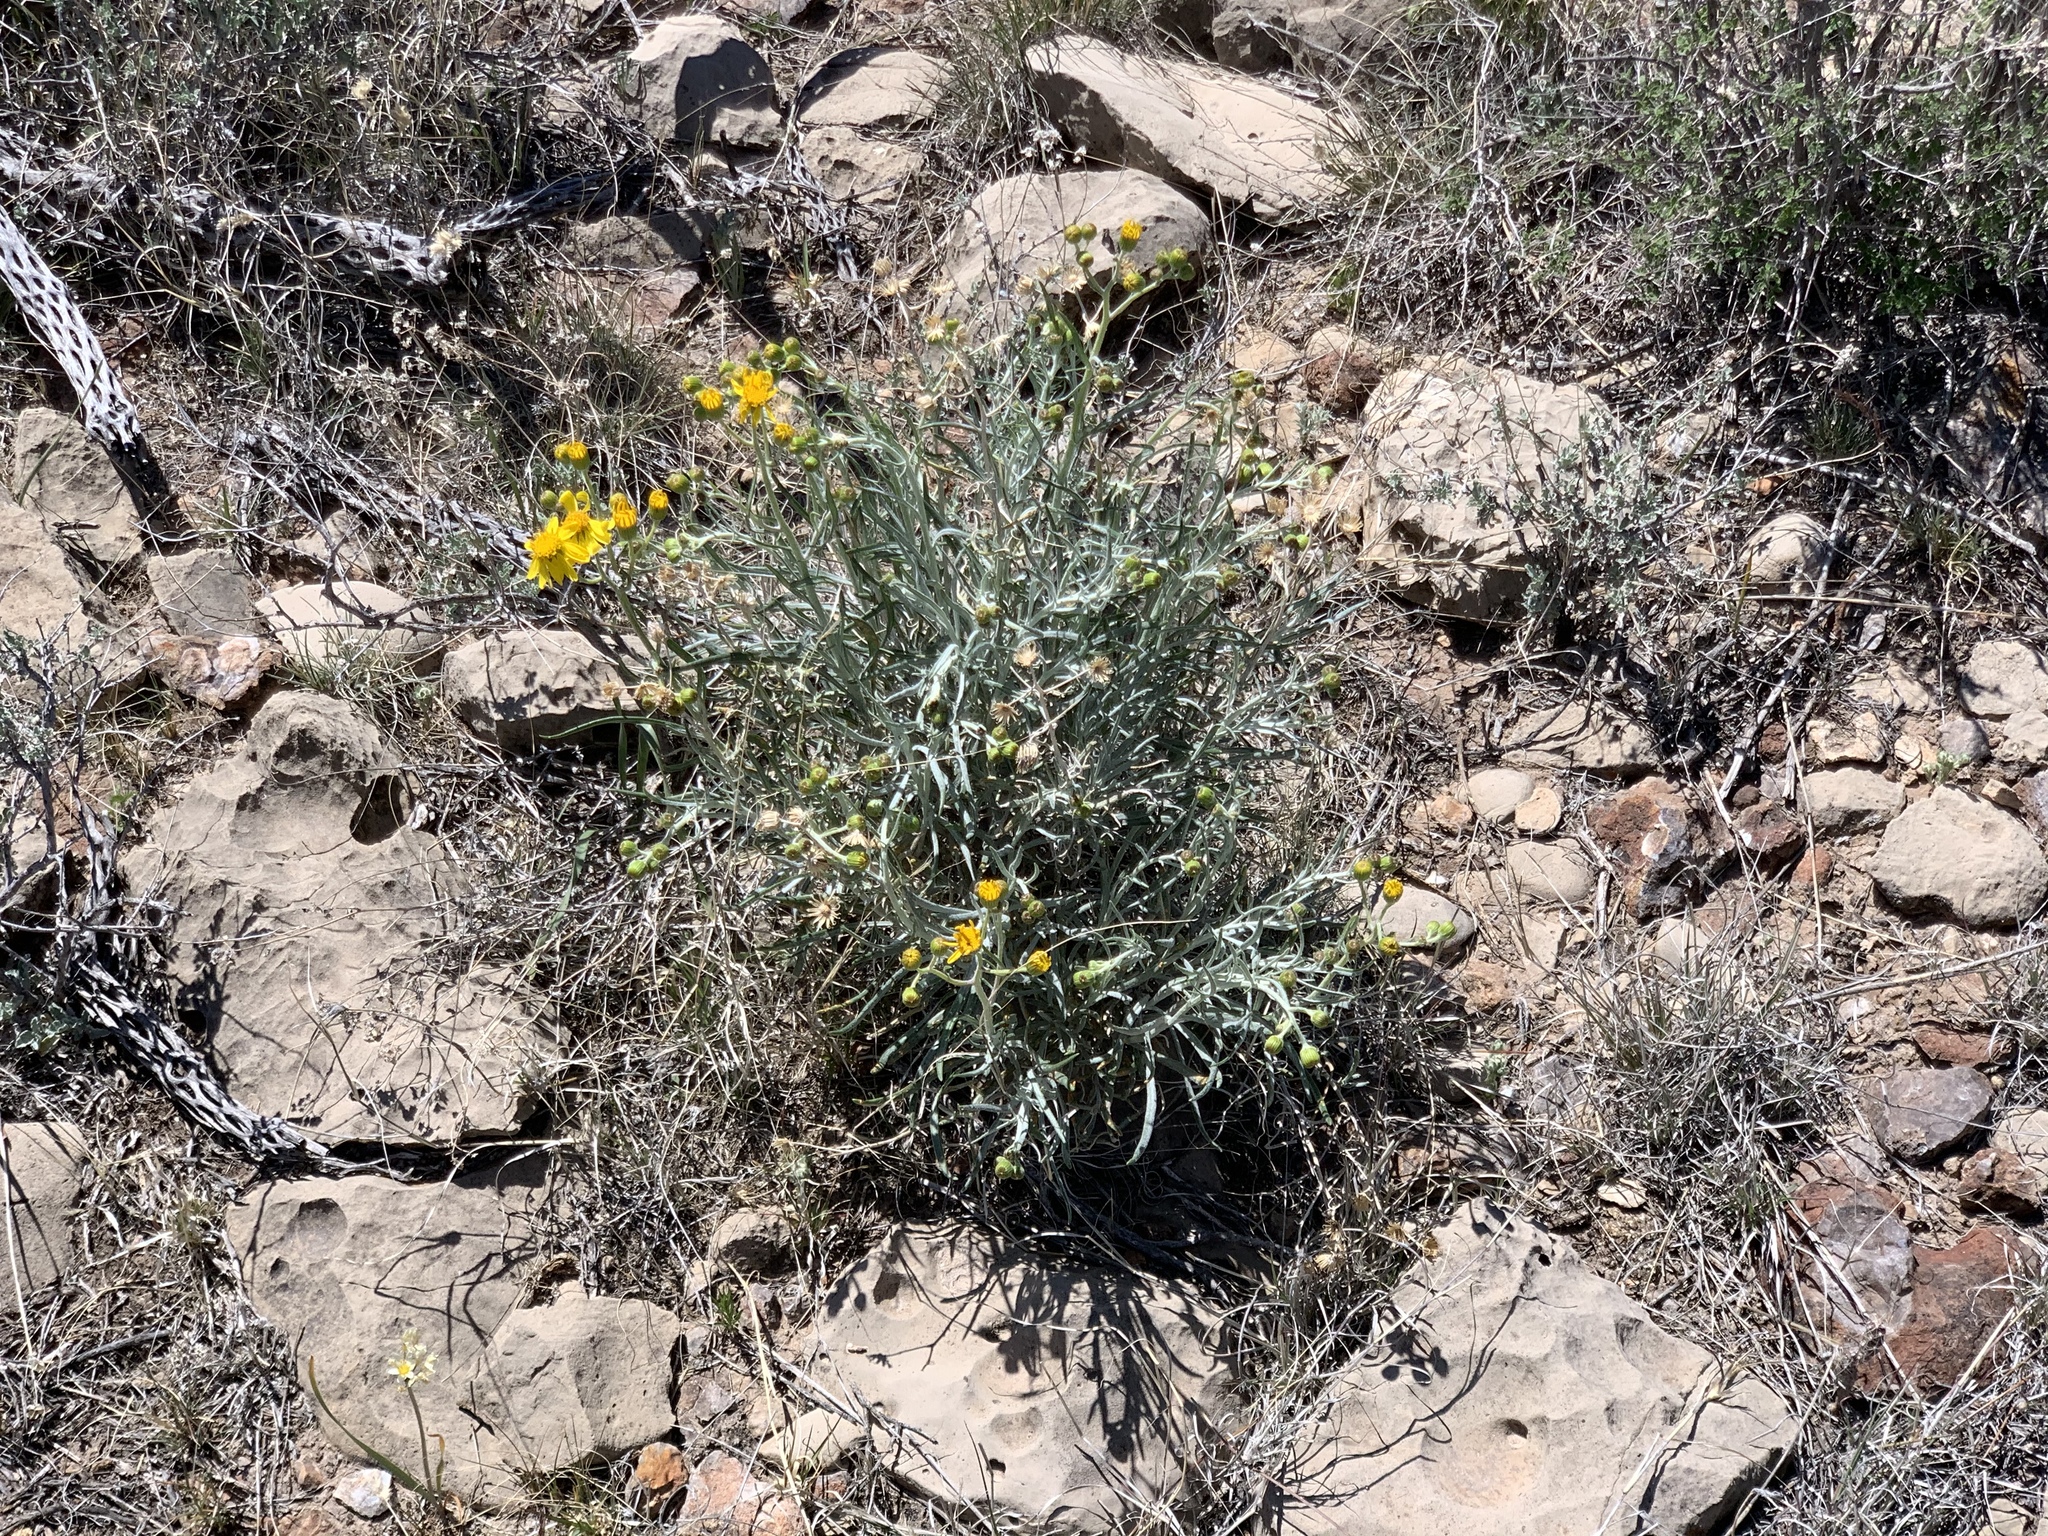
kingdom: Plantae
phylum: Tracheophyta
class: Magnoliopsida
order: Asterales
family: Asteraceae
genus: Senecio
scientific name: Senecio flaccidus
